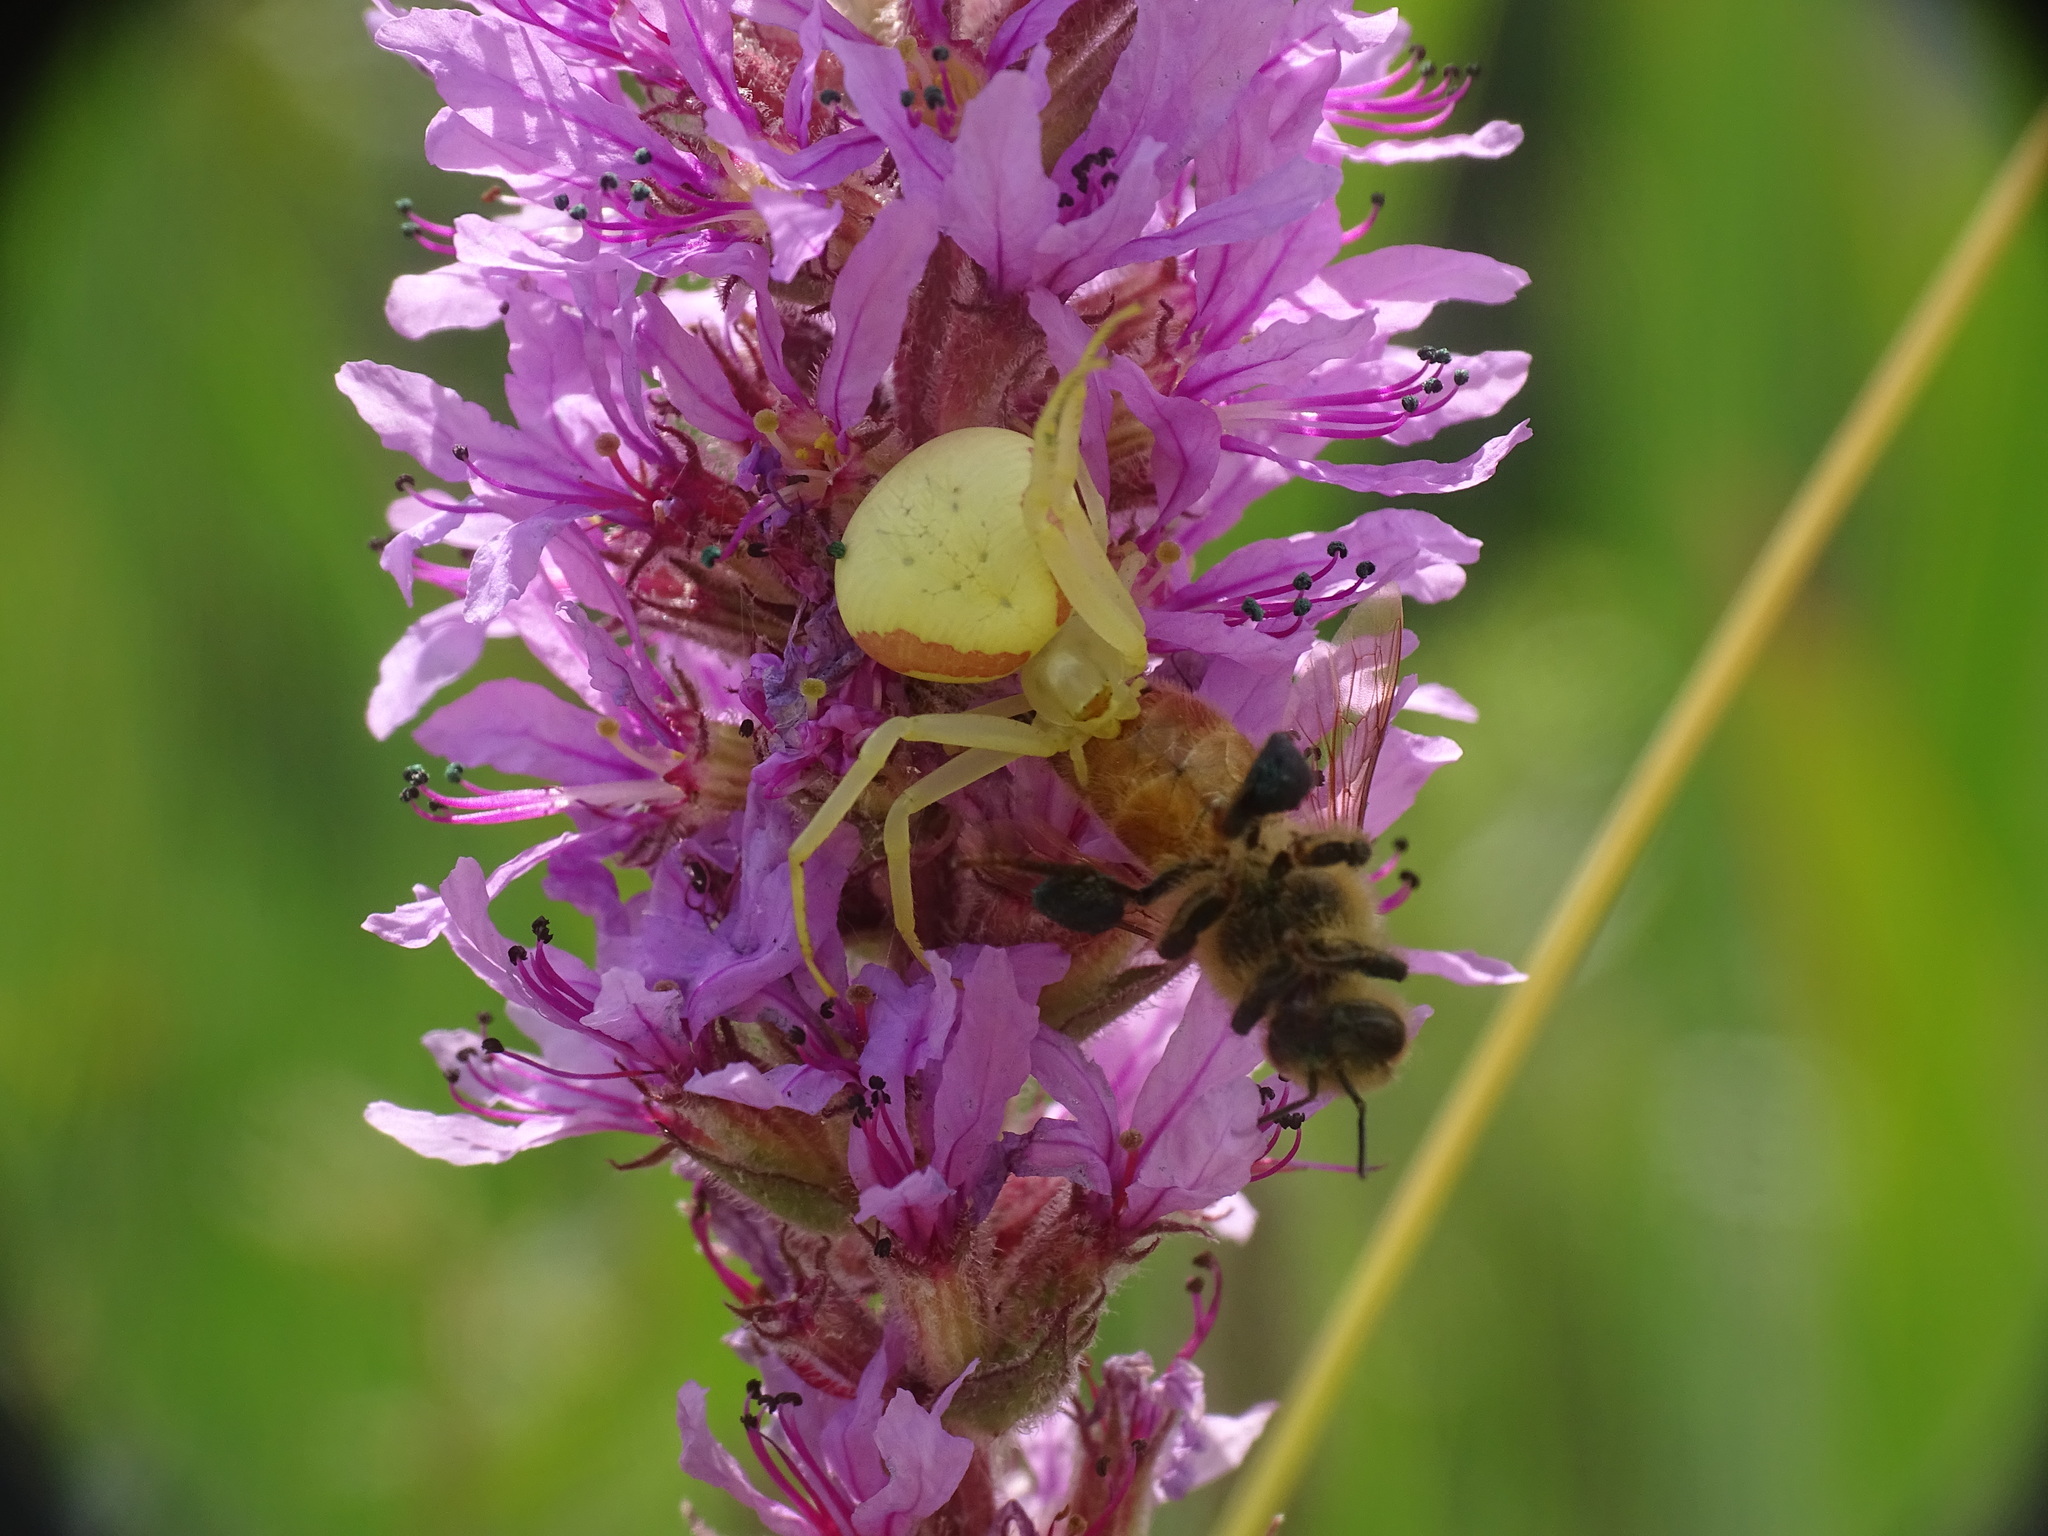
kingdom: Animalia
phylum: Arthropoda
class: Arachnida
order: Araneae
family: Thomisidae
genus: Misumena
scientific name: Misumena vatia
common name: Goldenrod crab spider
